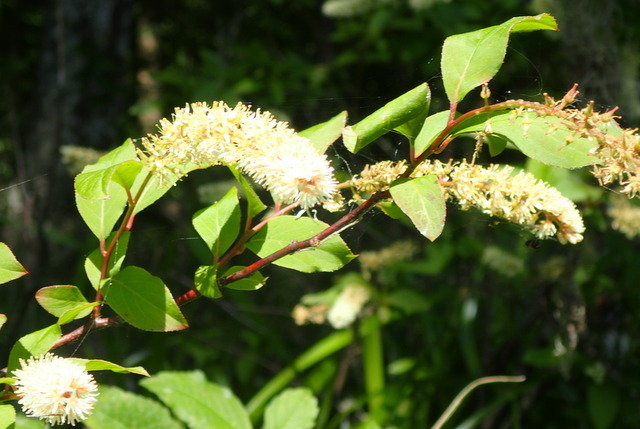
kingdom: Plantae
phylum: Tracheophyta
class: Magnoliopsida
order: Saxifragales
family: Iteaceae
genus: Itea
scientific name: Itea virginica
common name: Sweetspire
